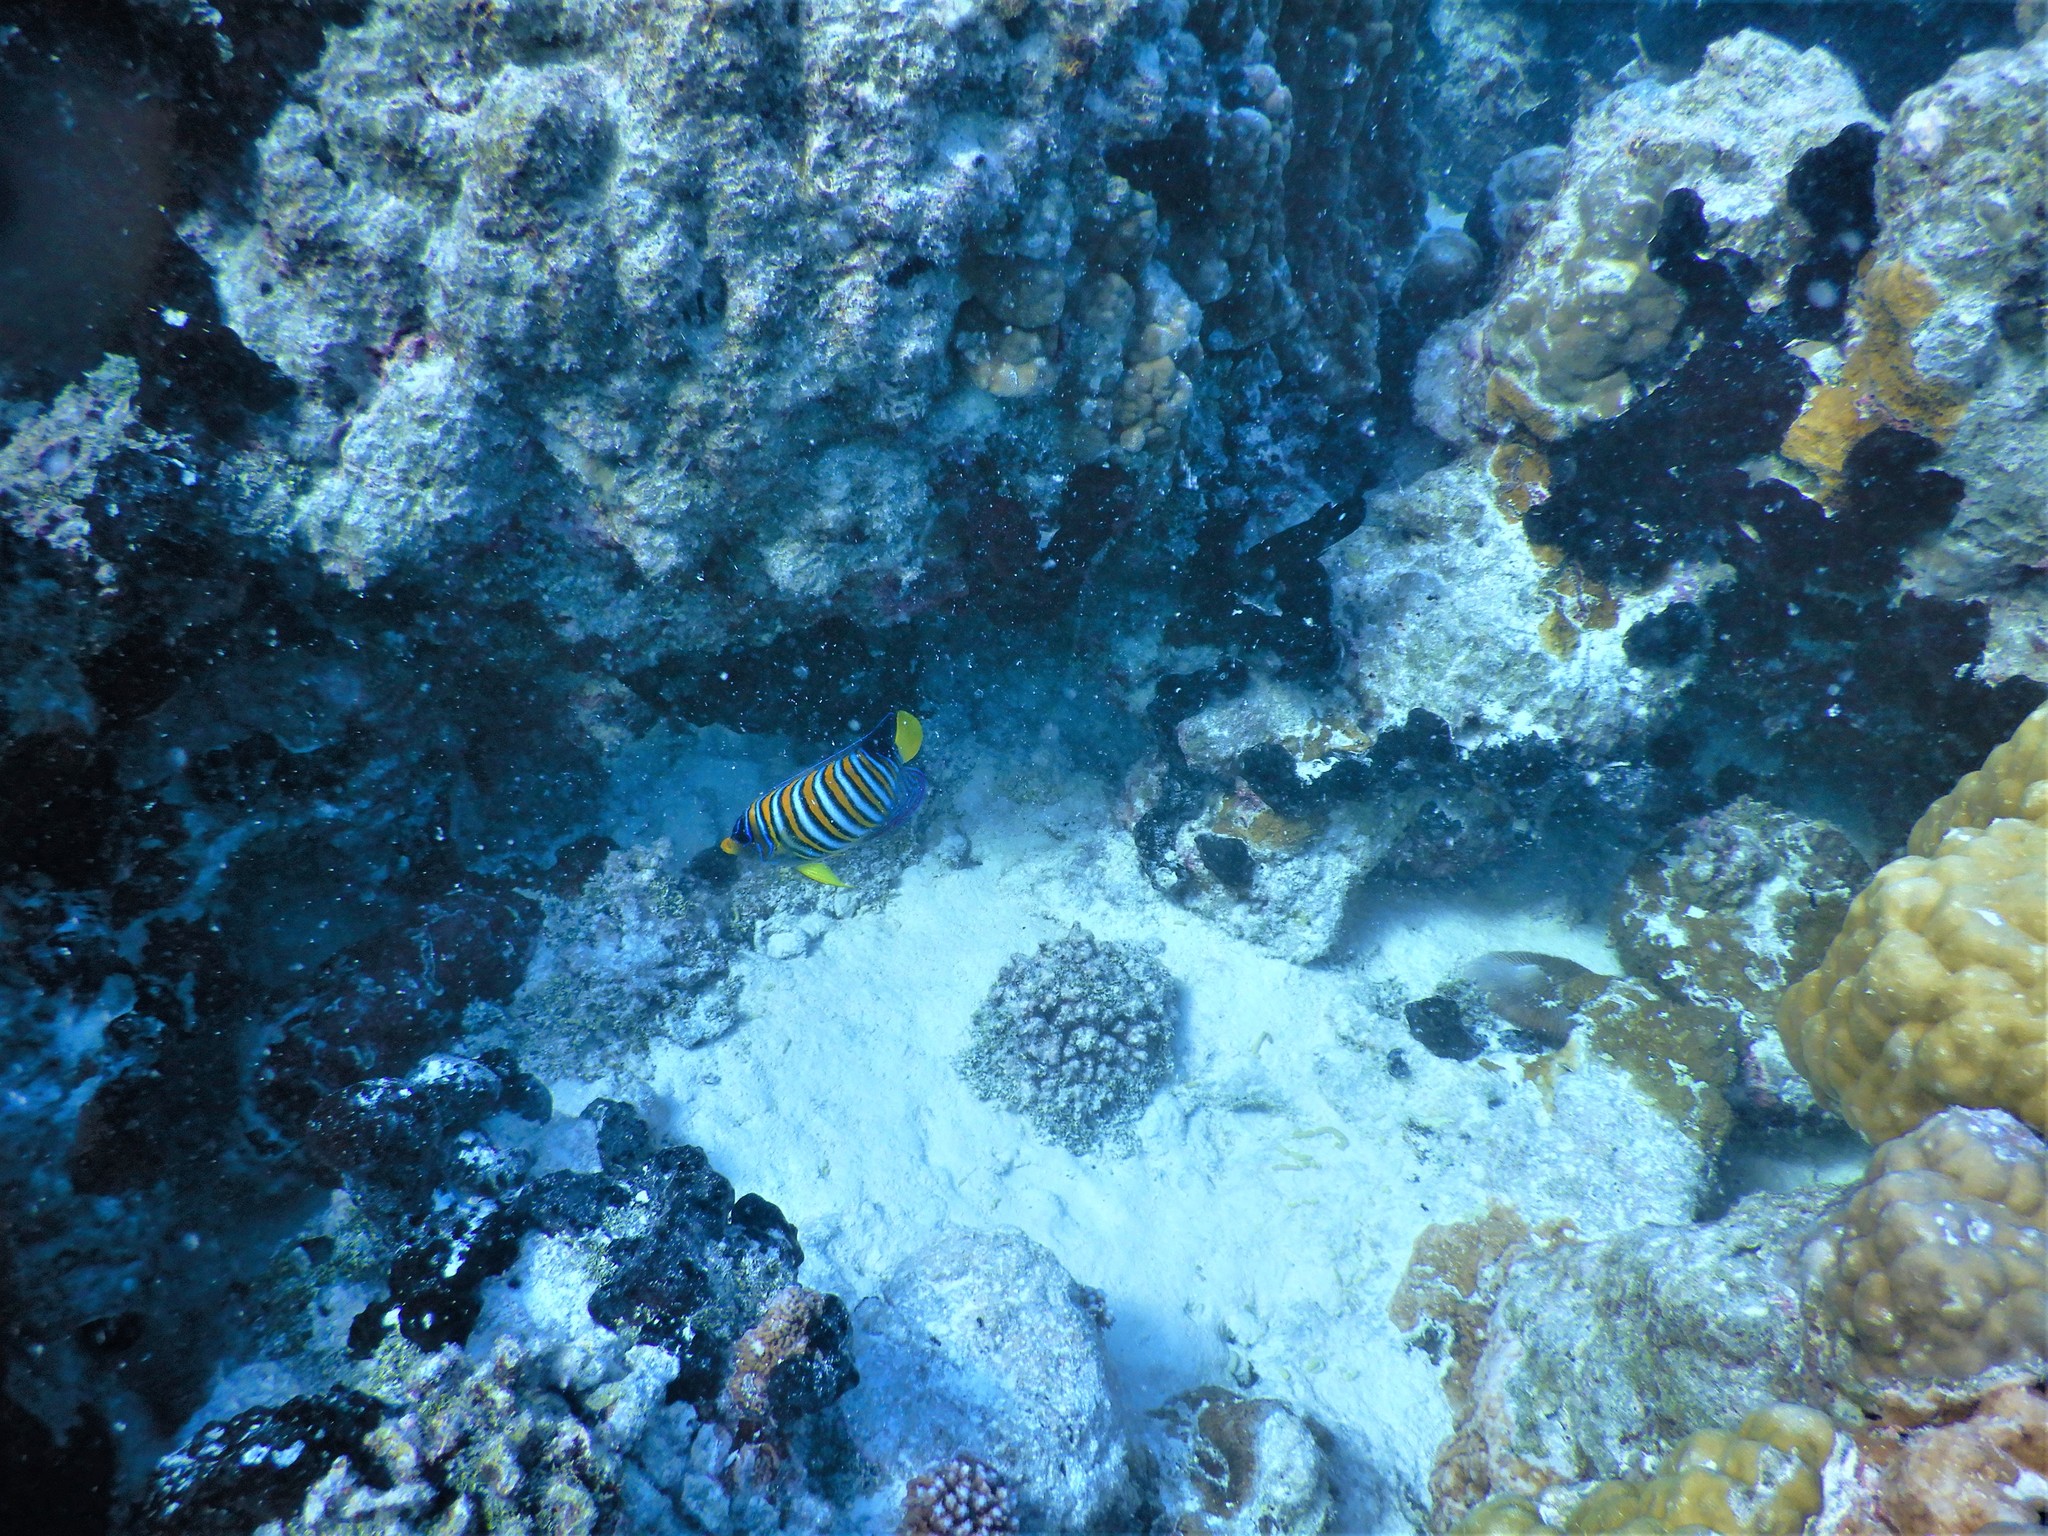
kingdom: Animalia
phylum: Chordata
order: Perciformes
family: Pomacanthidae
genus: Pygoplites
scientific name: Pygoplites diacanthus
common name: Regal angelfish
